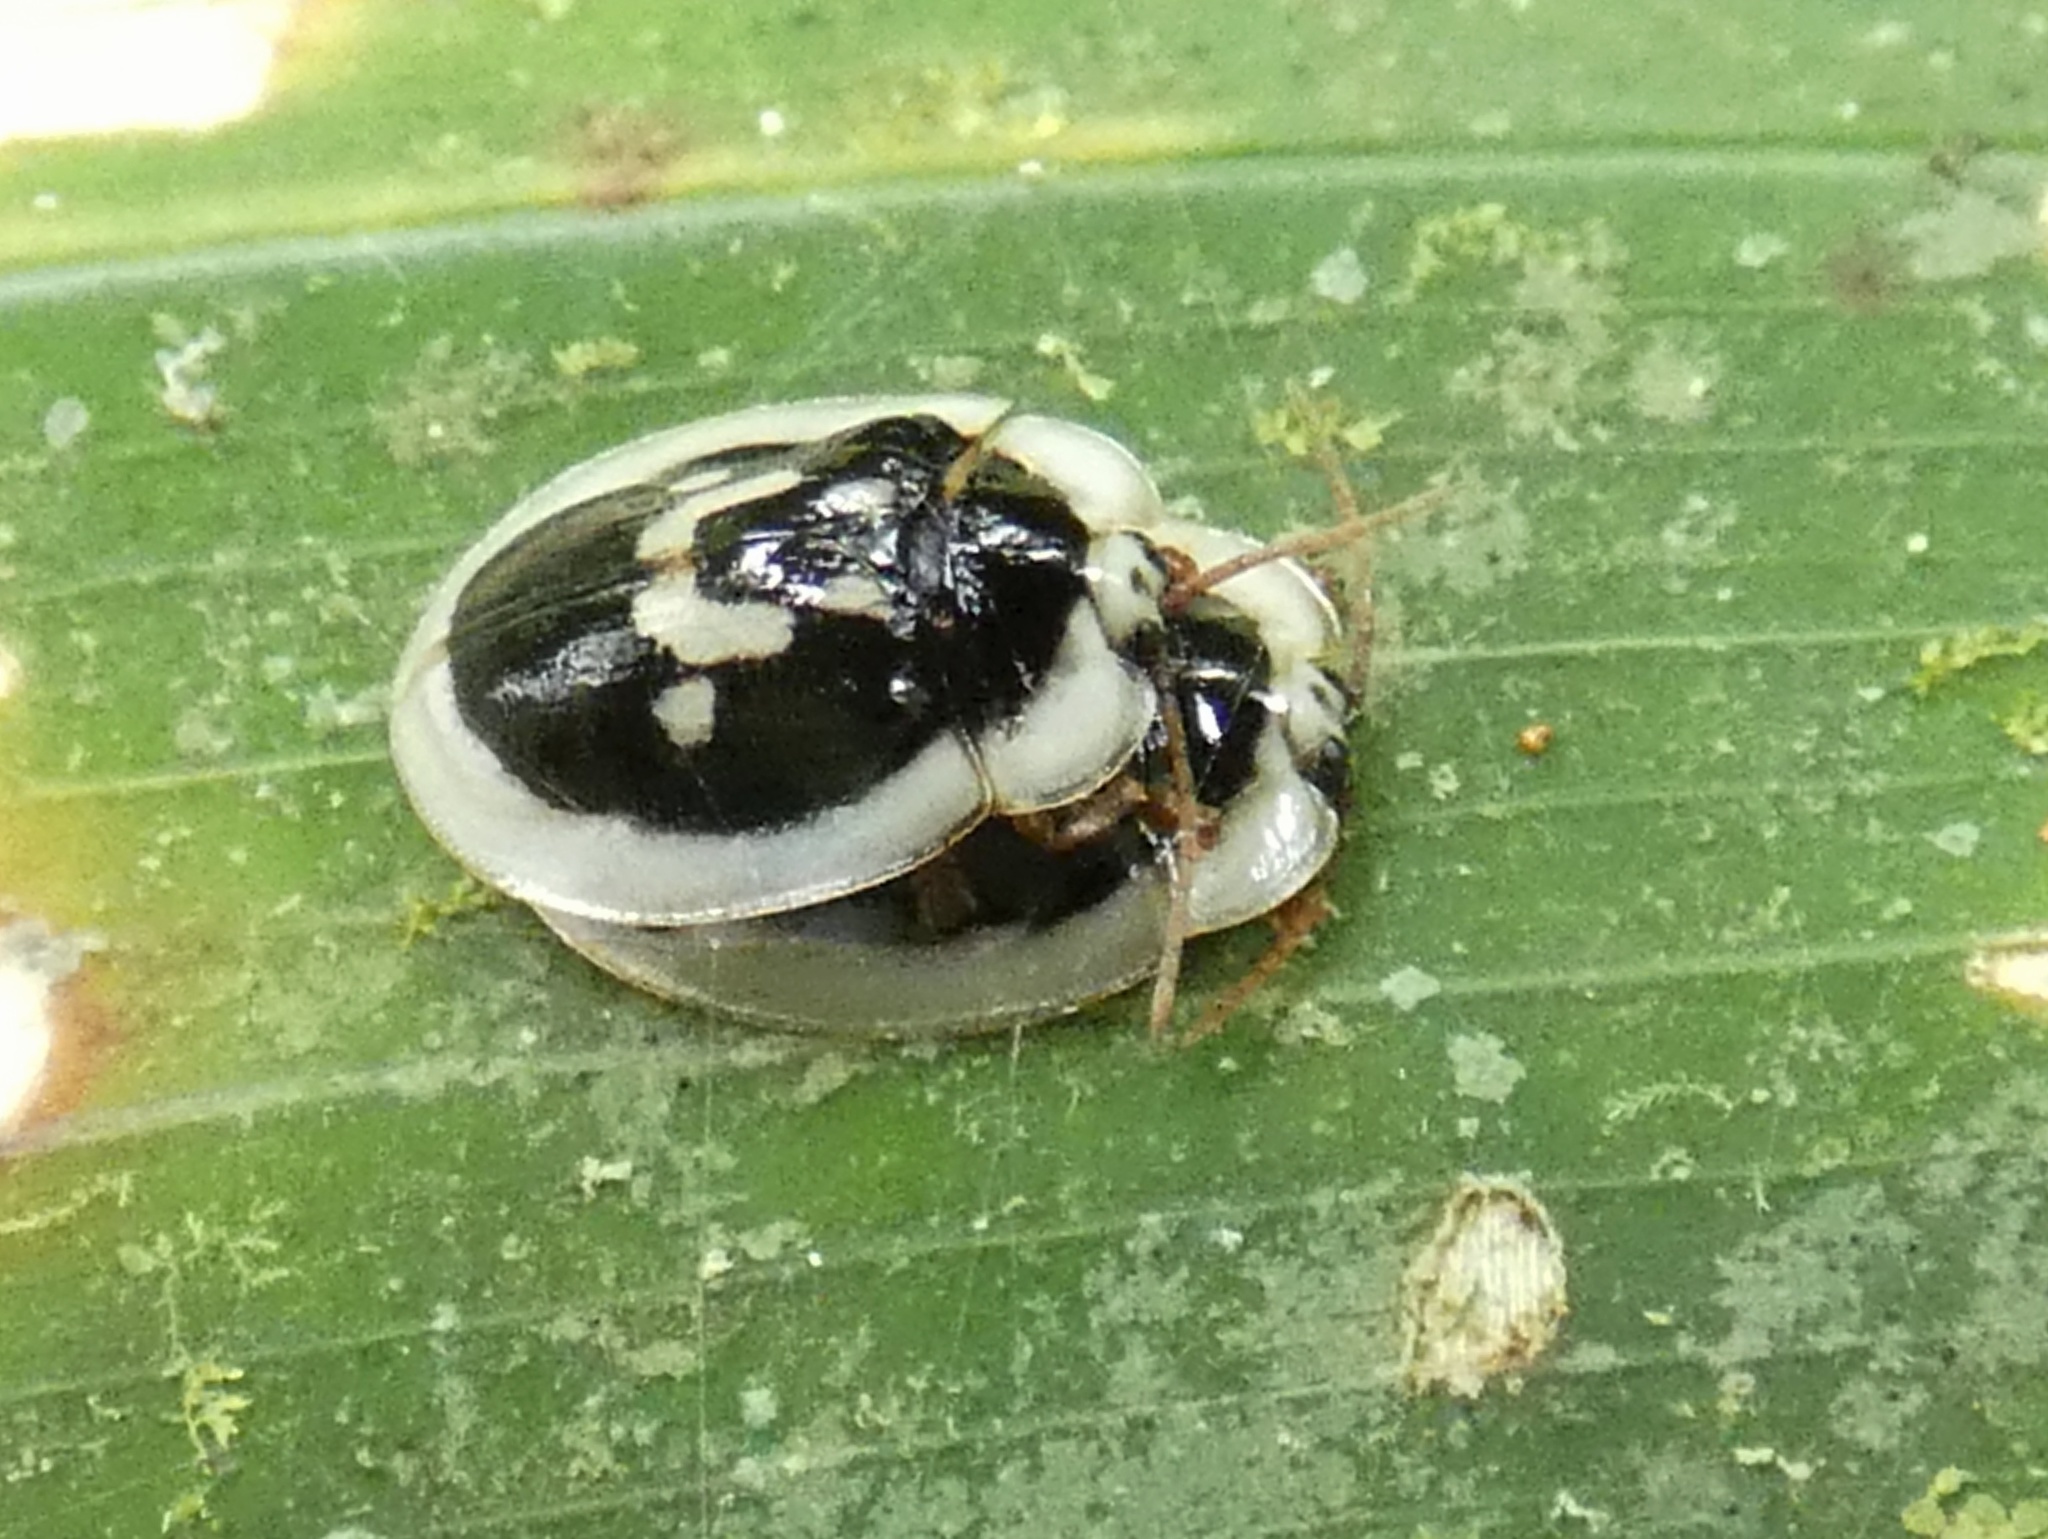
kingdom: Animalia
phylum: Arthropoda
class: Insecta
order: Coleoptera
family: Chrysomelidae
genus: Aslamidium
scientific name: Aslamidium semicirculare
